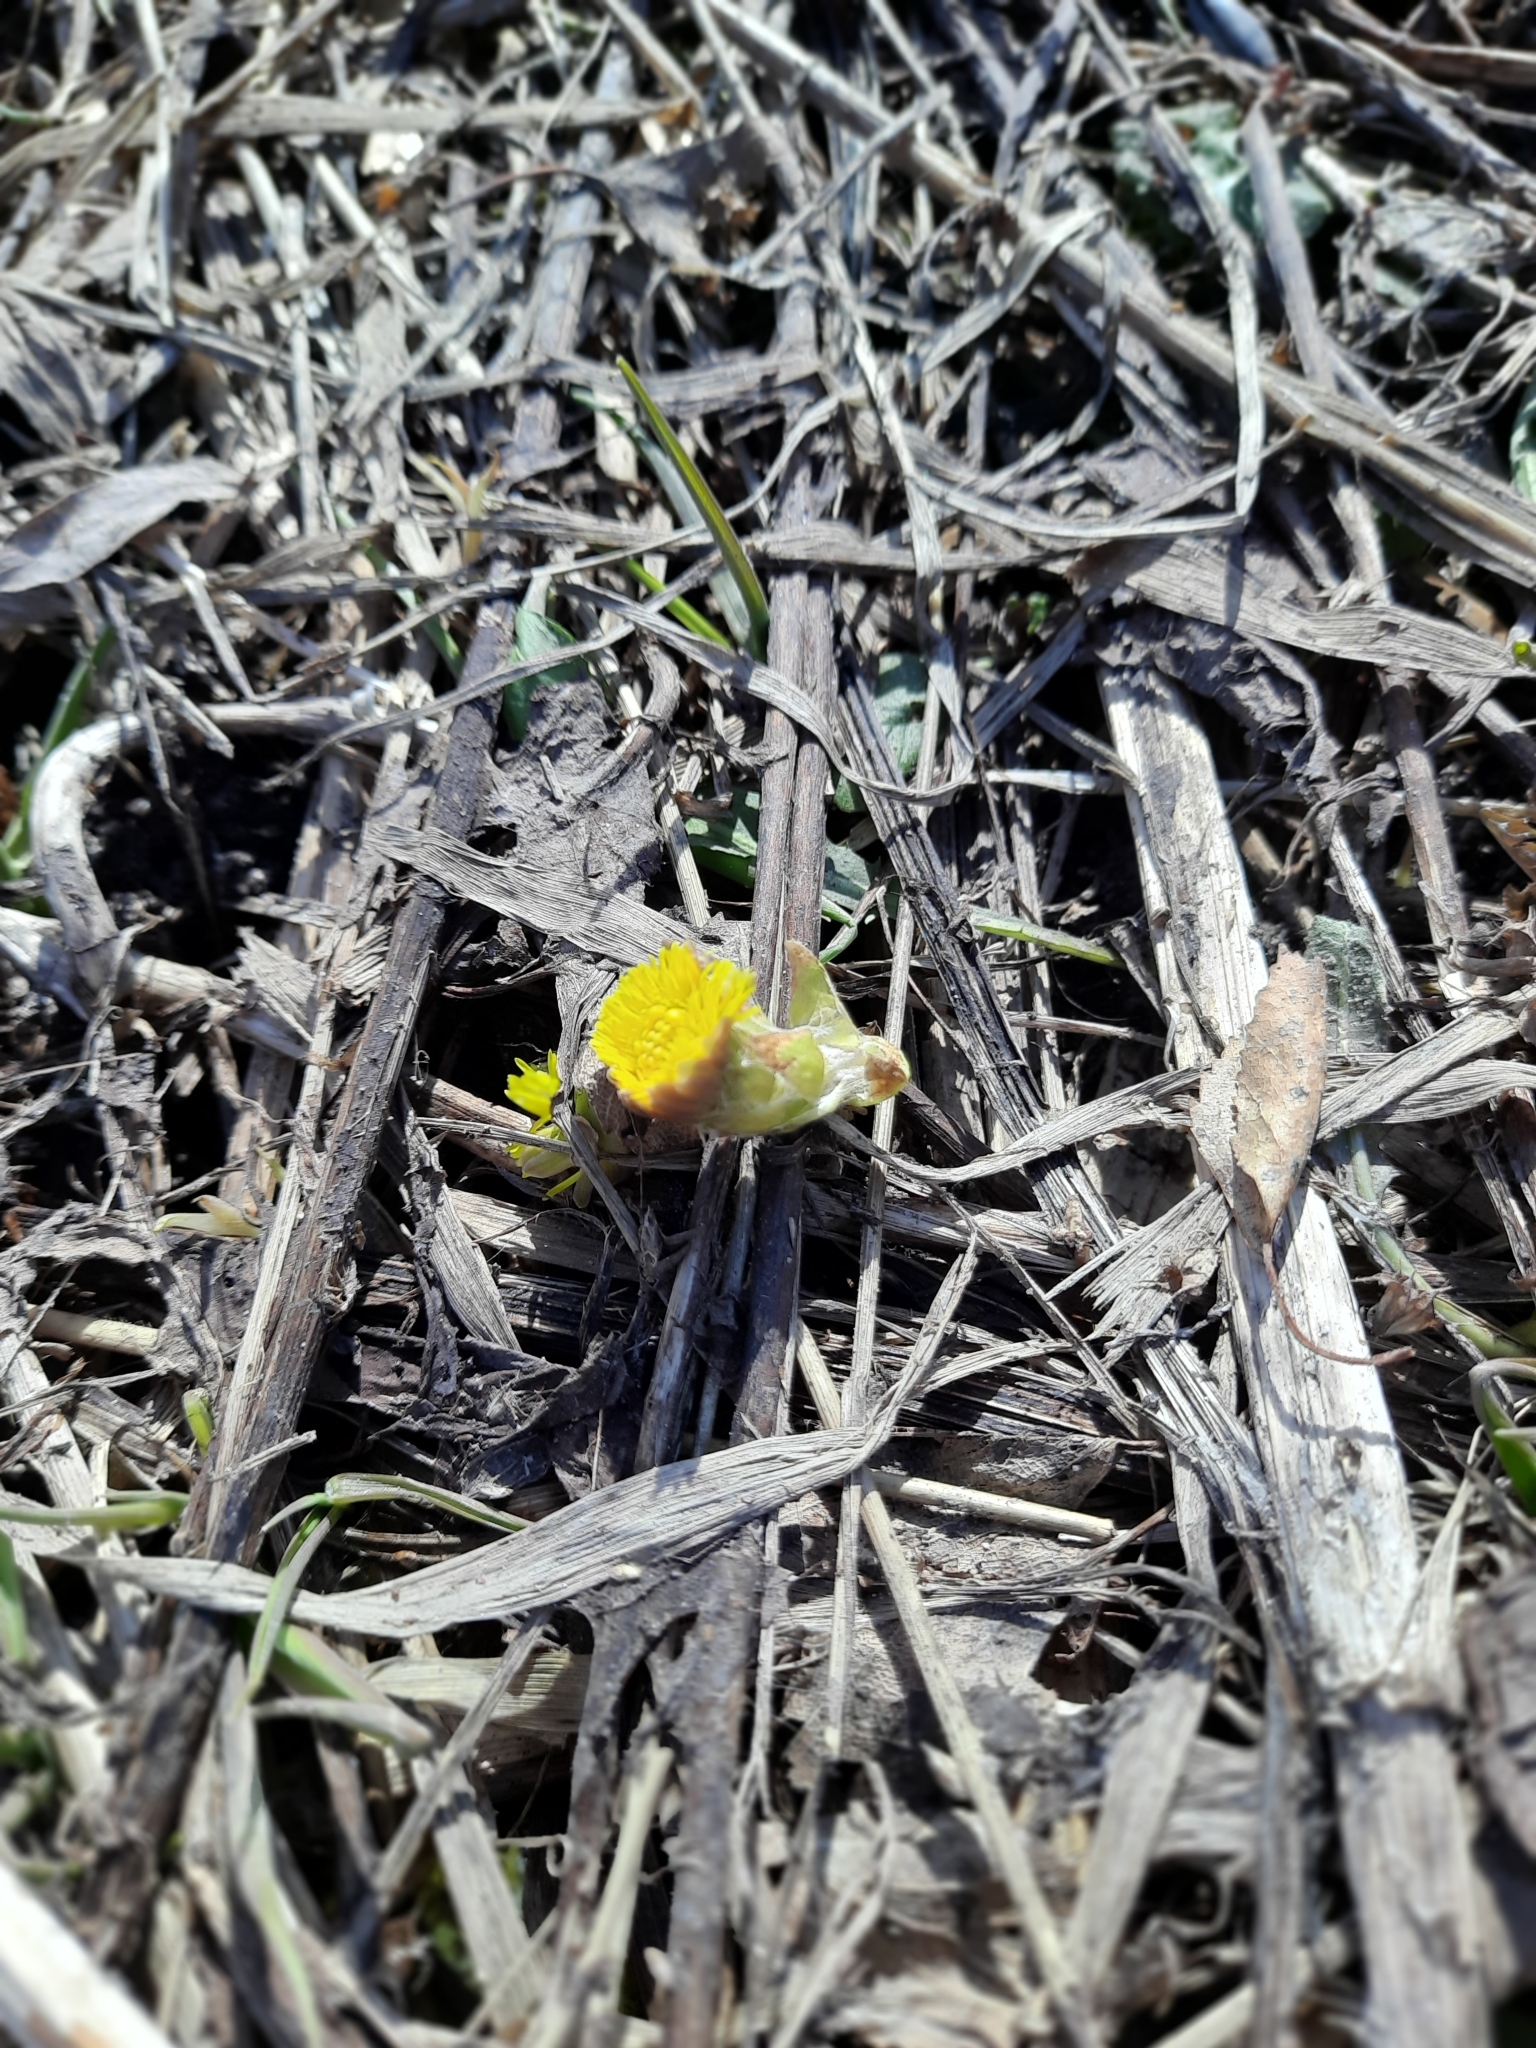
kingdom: Plantae
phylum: Tracheophyta
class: Magnoliopsida
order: Asterales
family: Asteraceae
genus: Tussilago
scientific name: Tussilago farfara
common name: Coltsfoot
